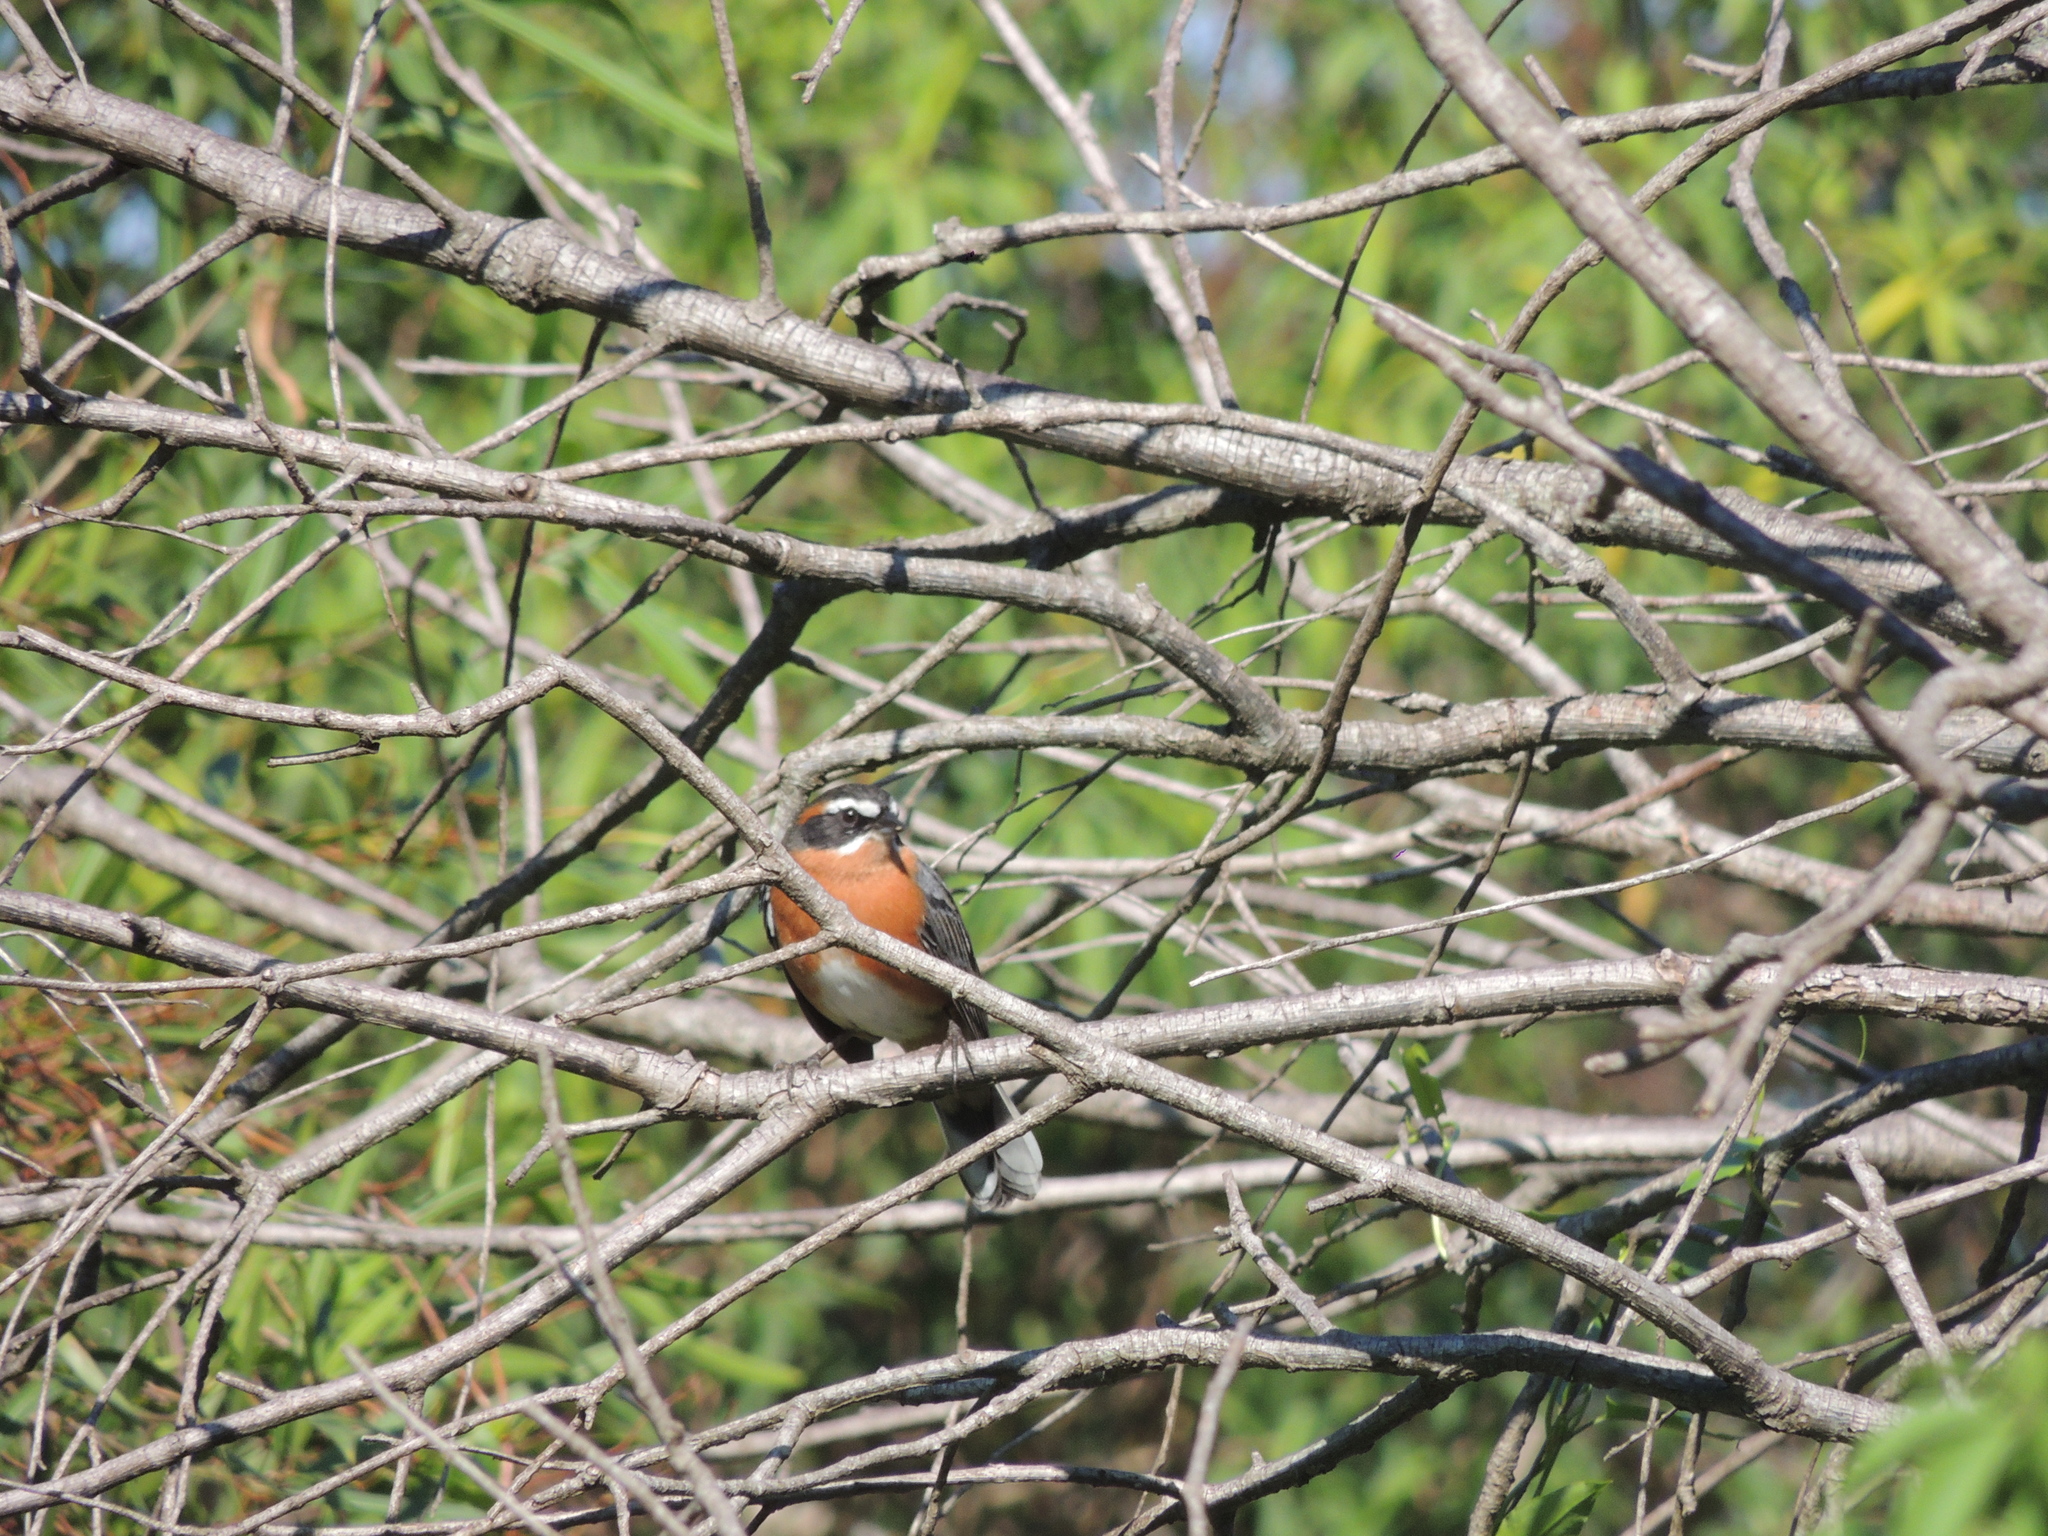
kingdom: Animalia
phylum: Chordata
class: Aves
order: Passeriformes
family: Thraupidae
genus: Poospiza
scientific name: Poospiza nigrorufa
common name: Black-and-rufous warbling finch
